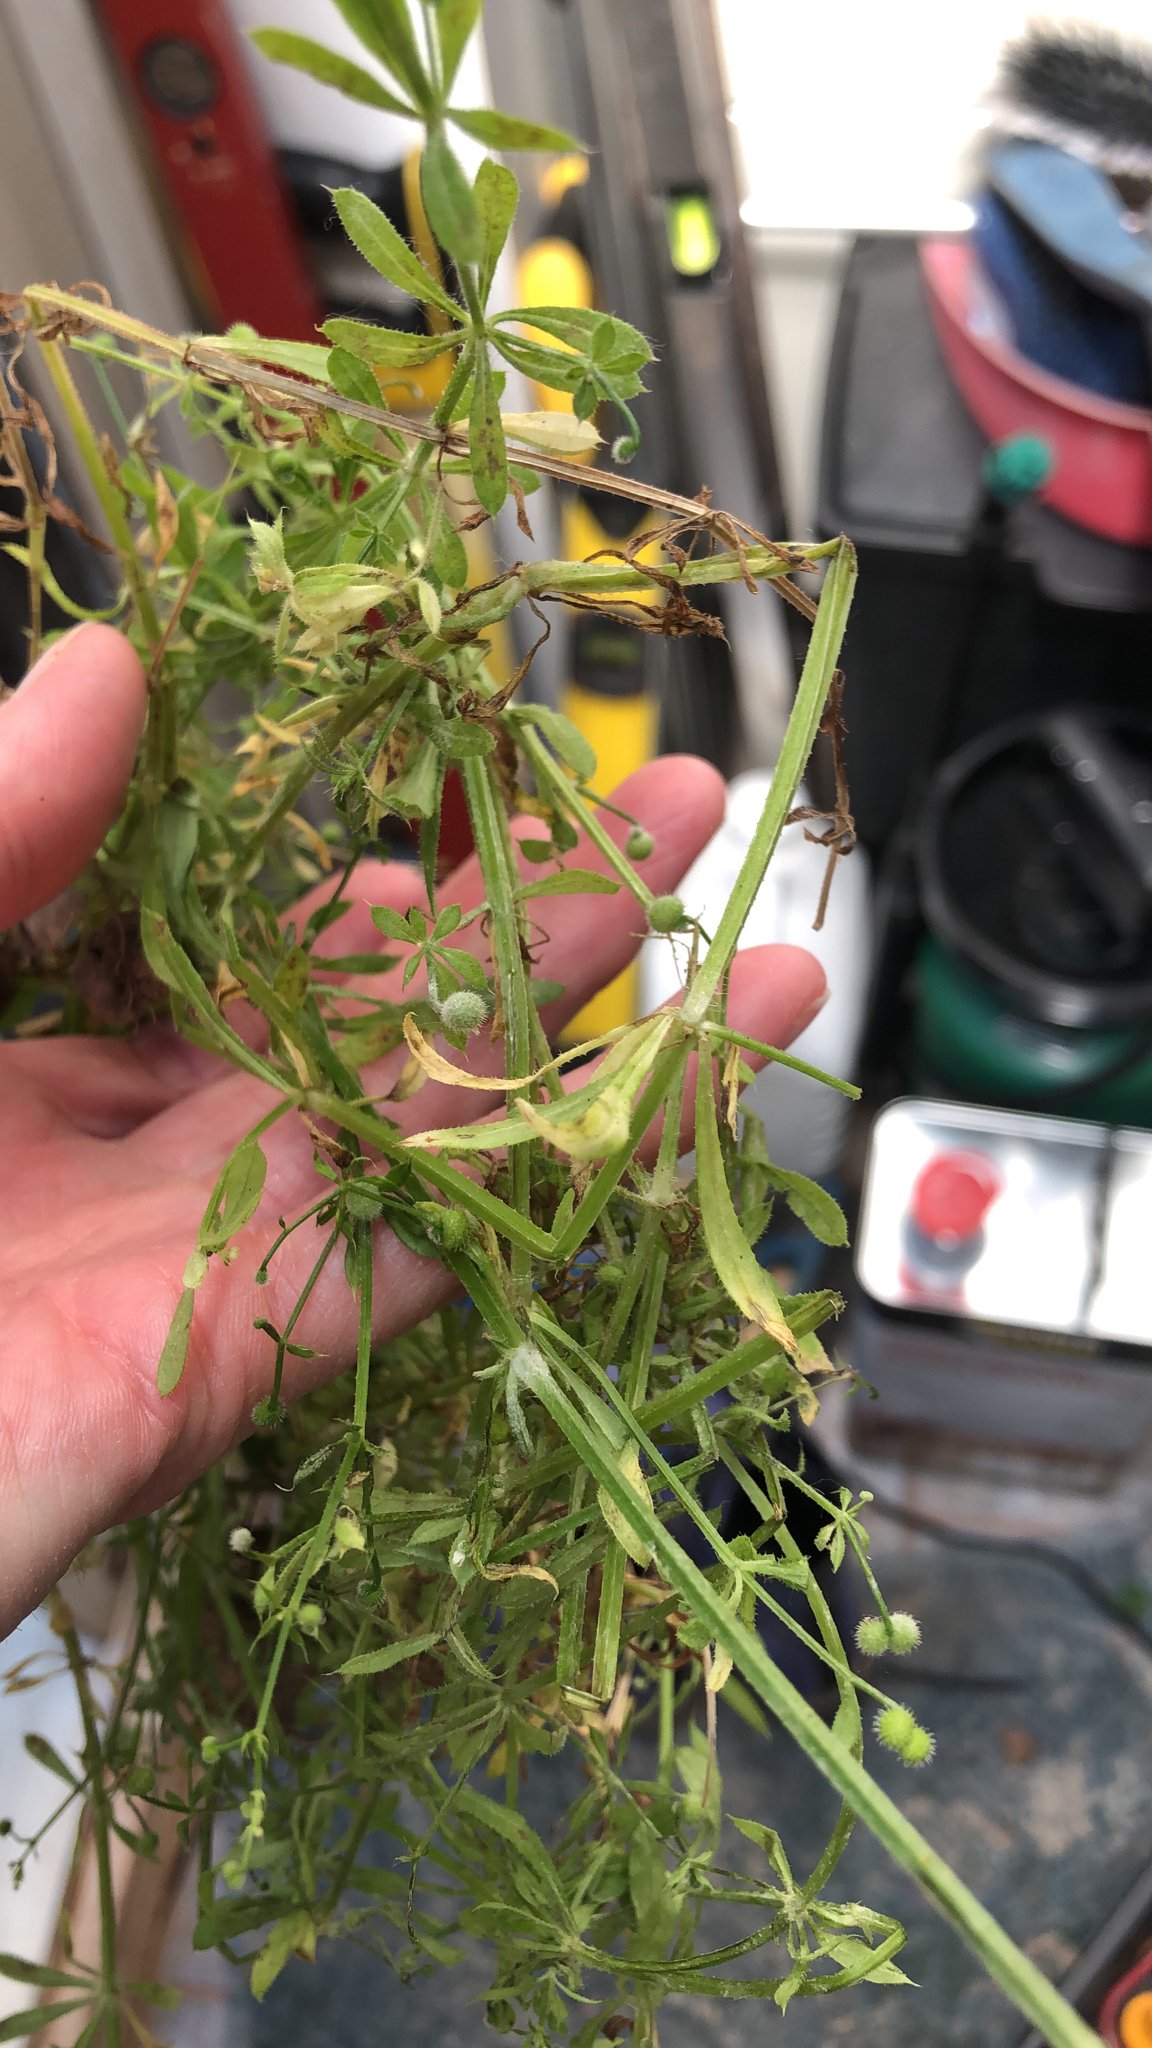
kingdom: Plantae
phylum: Tracheophyta
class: Magnoliopsida
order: Gentianales
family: Rubiaceae
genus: Galium
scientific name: Galium aparine
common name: Cleavers
